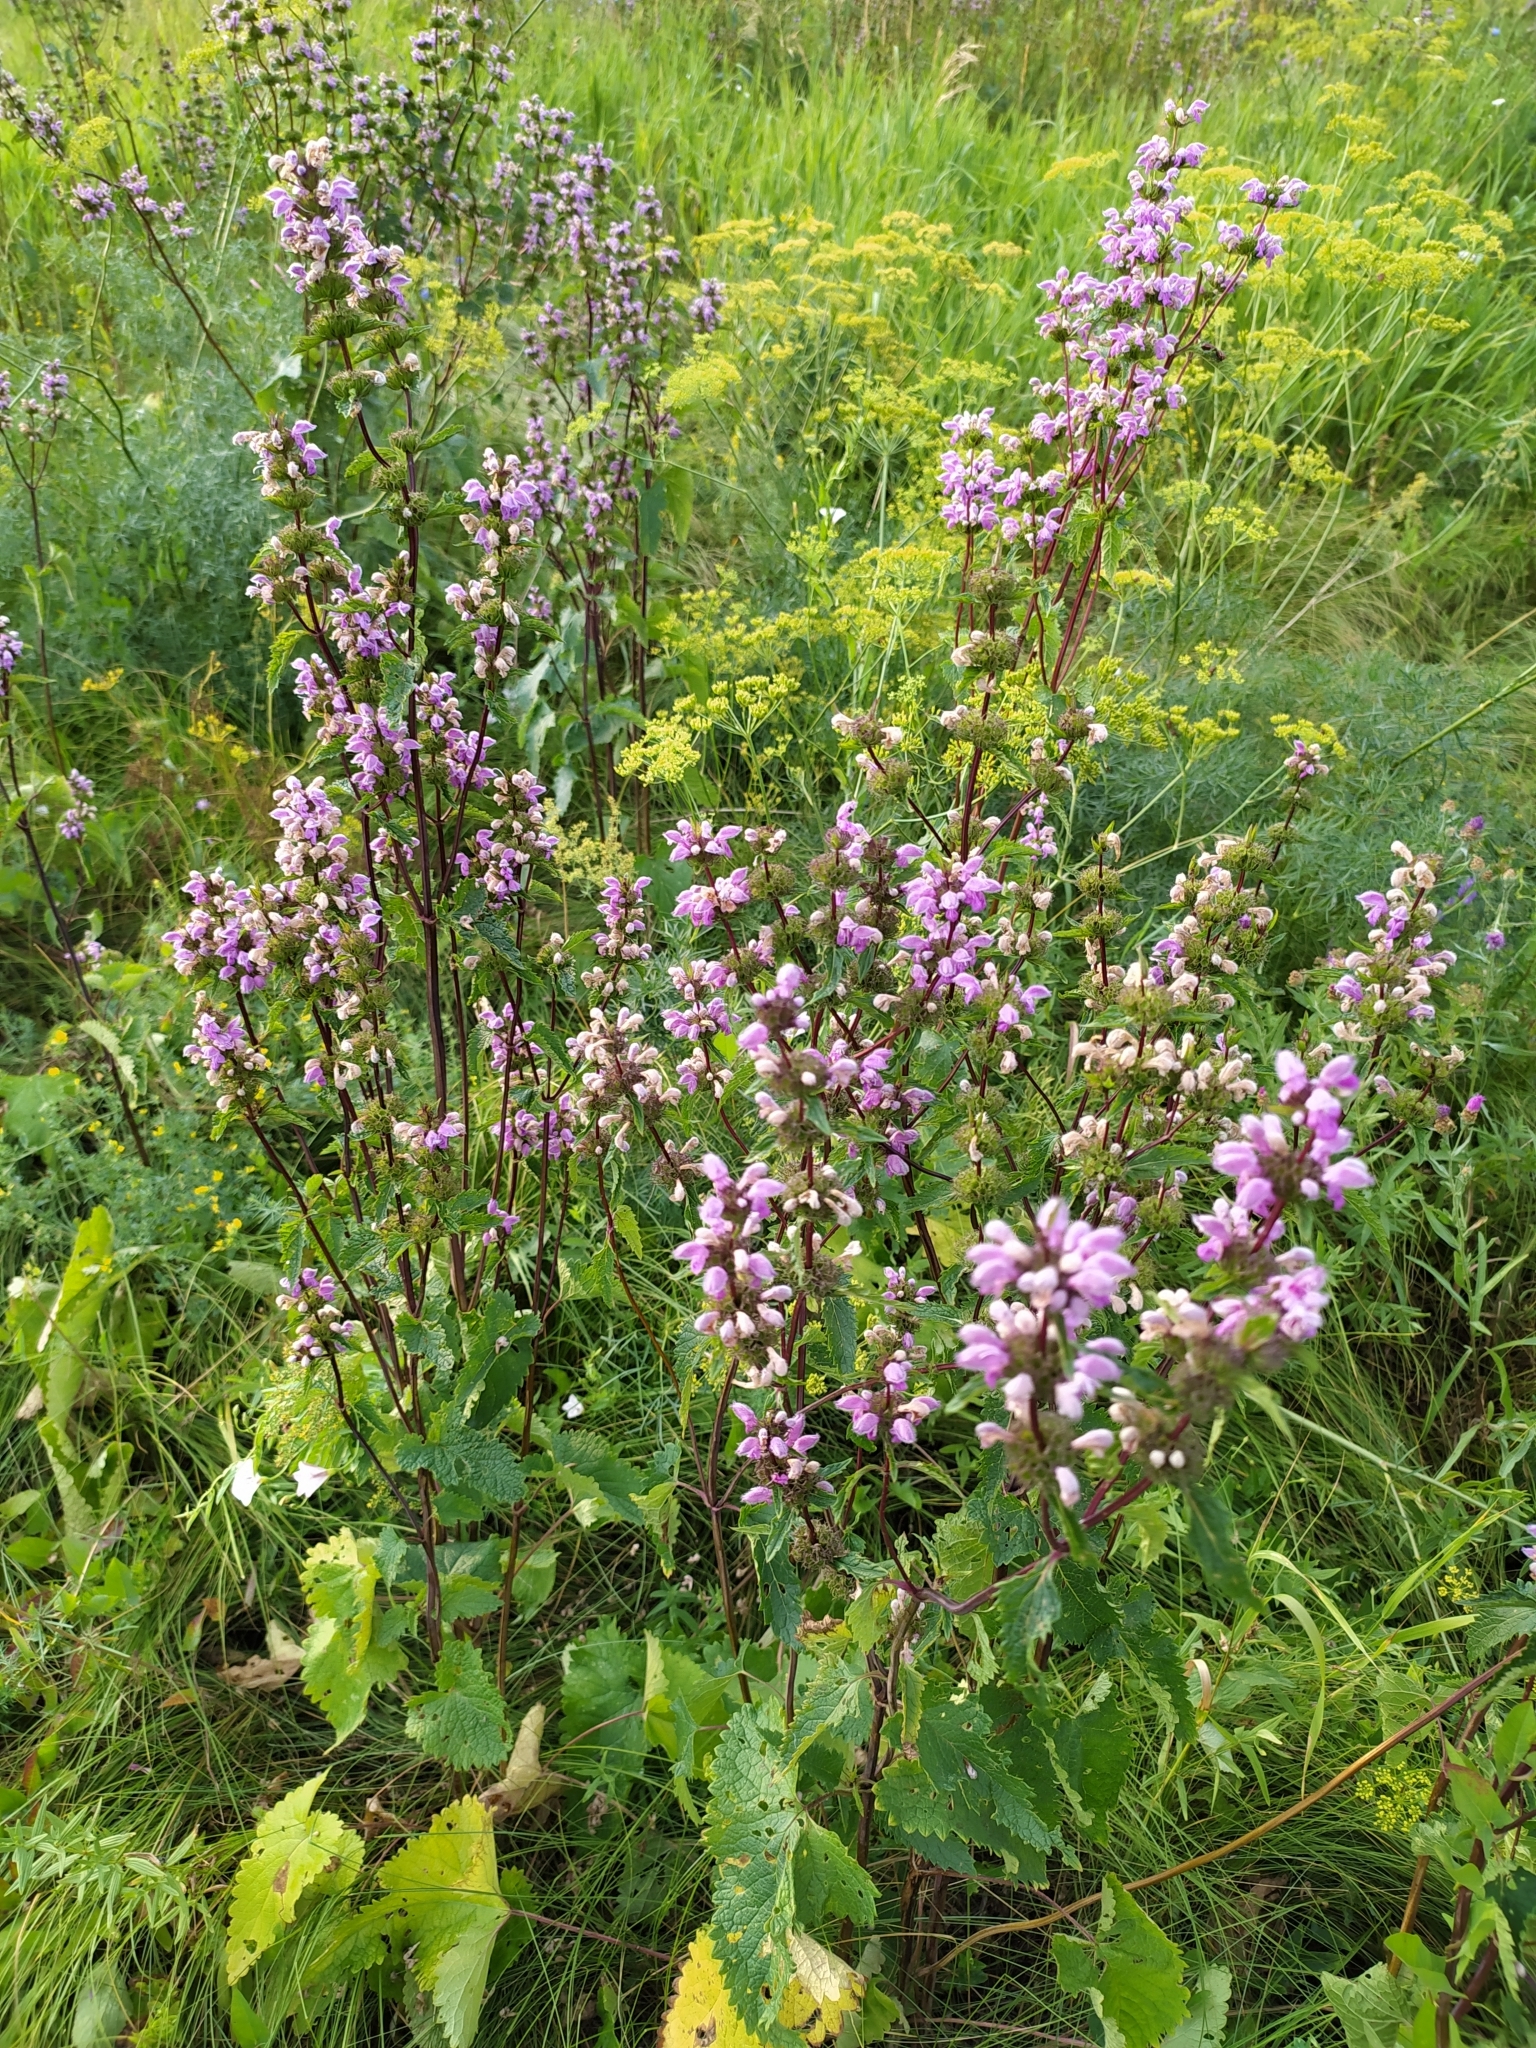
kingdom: Plantae
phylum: Tracheophyta
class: Magnoliopsida
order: Lamiales
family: Lamiaceae
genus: Phlomoides
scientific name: Phlomoides tuberosa
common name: Tuberous jerusalem sage
